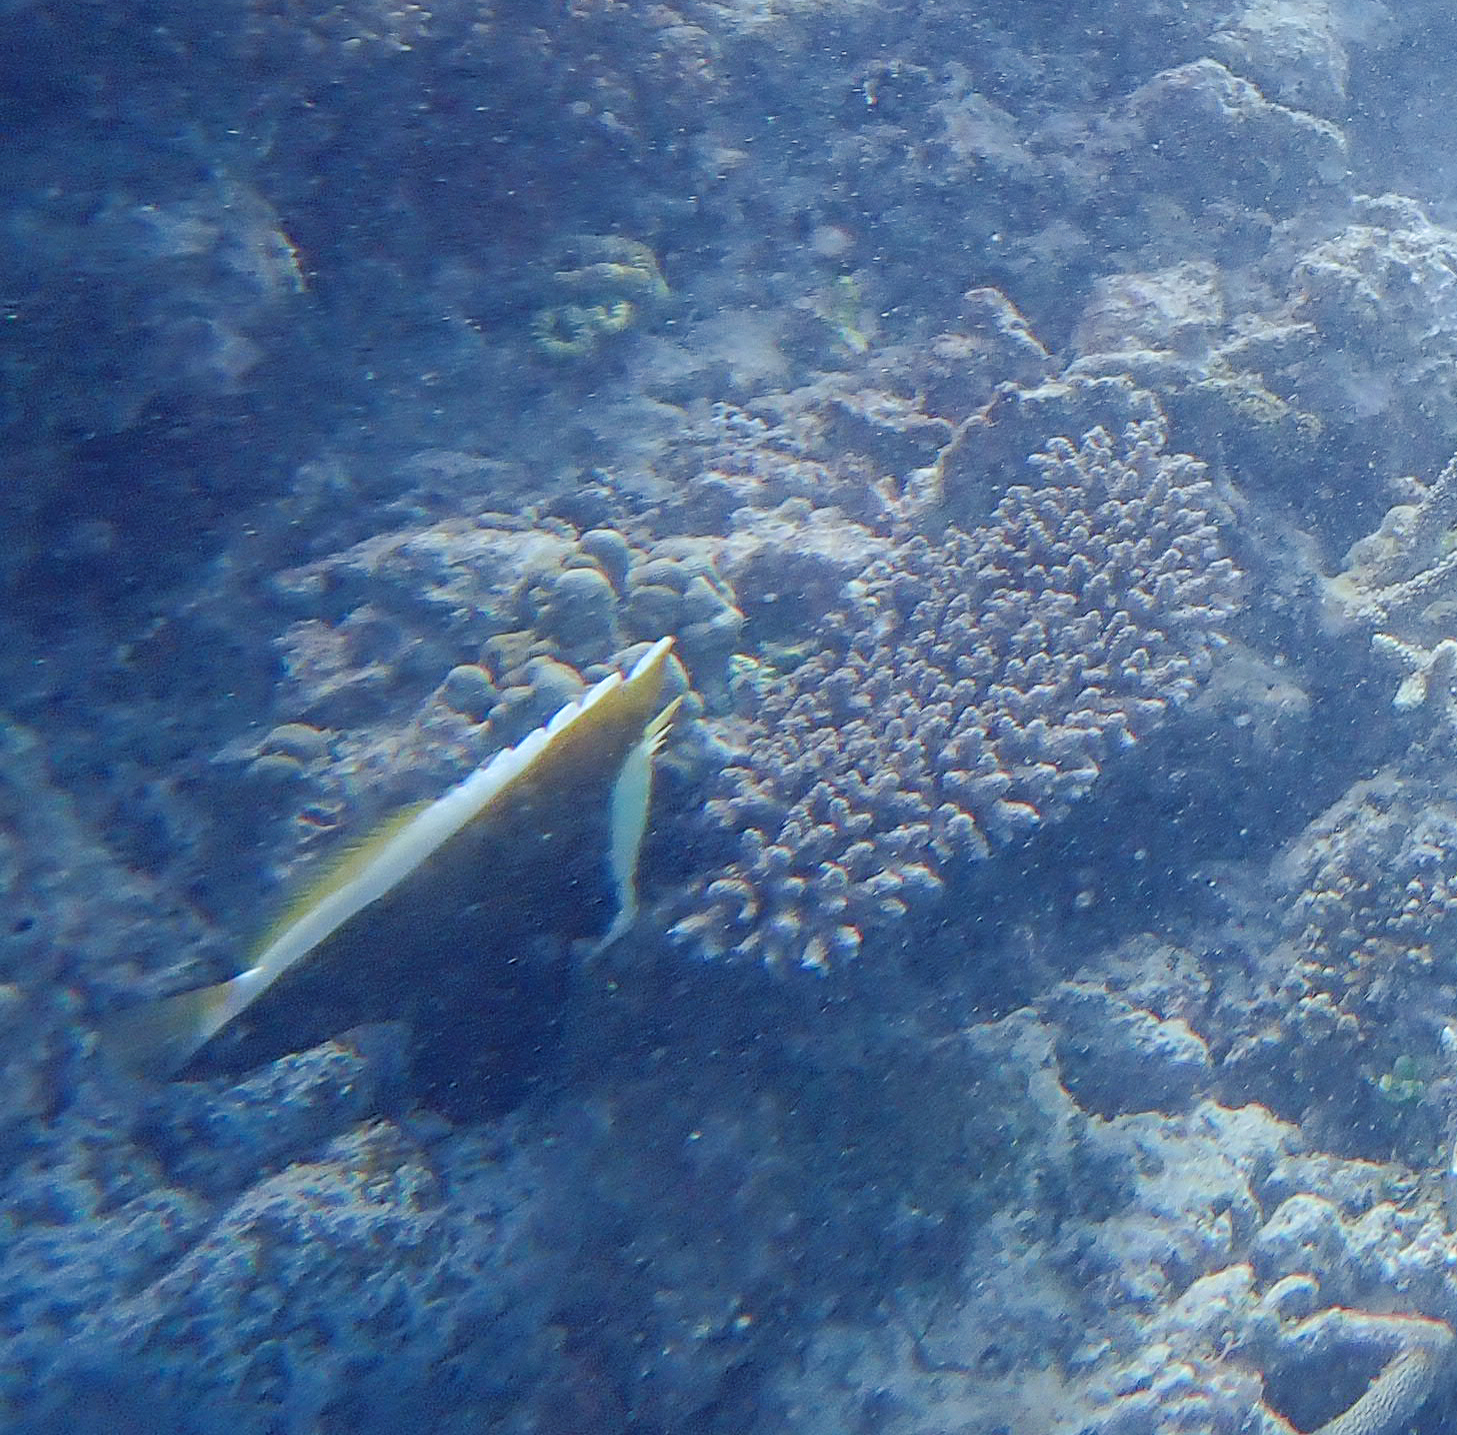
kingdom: Animalia
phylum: Chordata
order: Perciformes
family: Chaetodontidae
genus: Heniochus
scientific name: Heniochus varius
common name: Horned bannerfish
